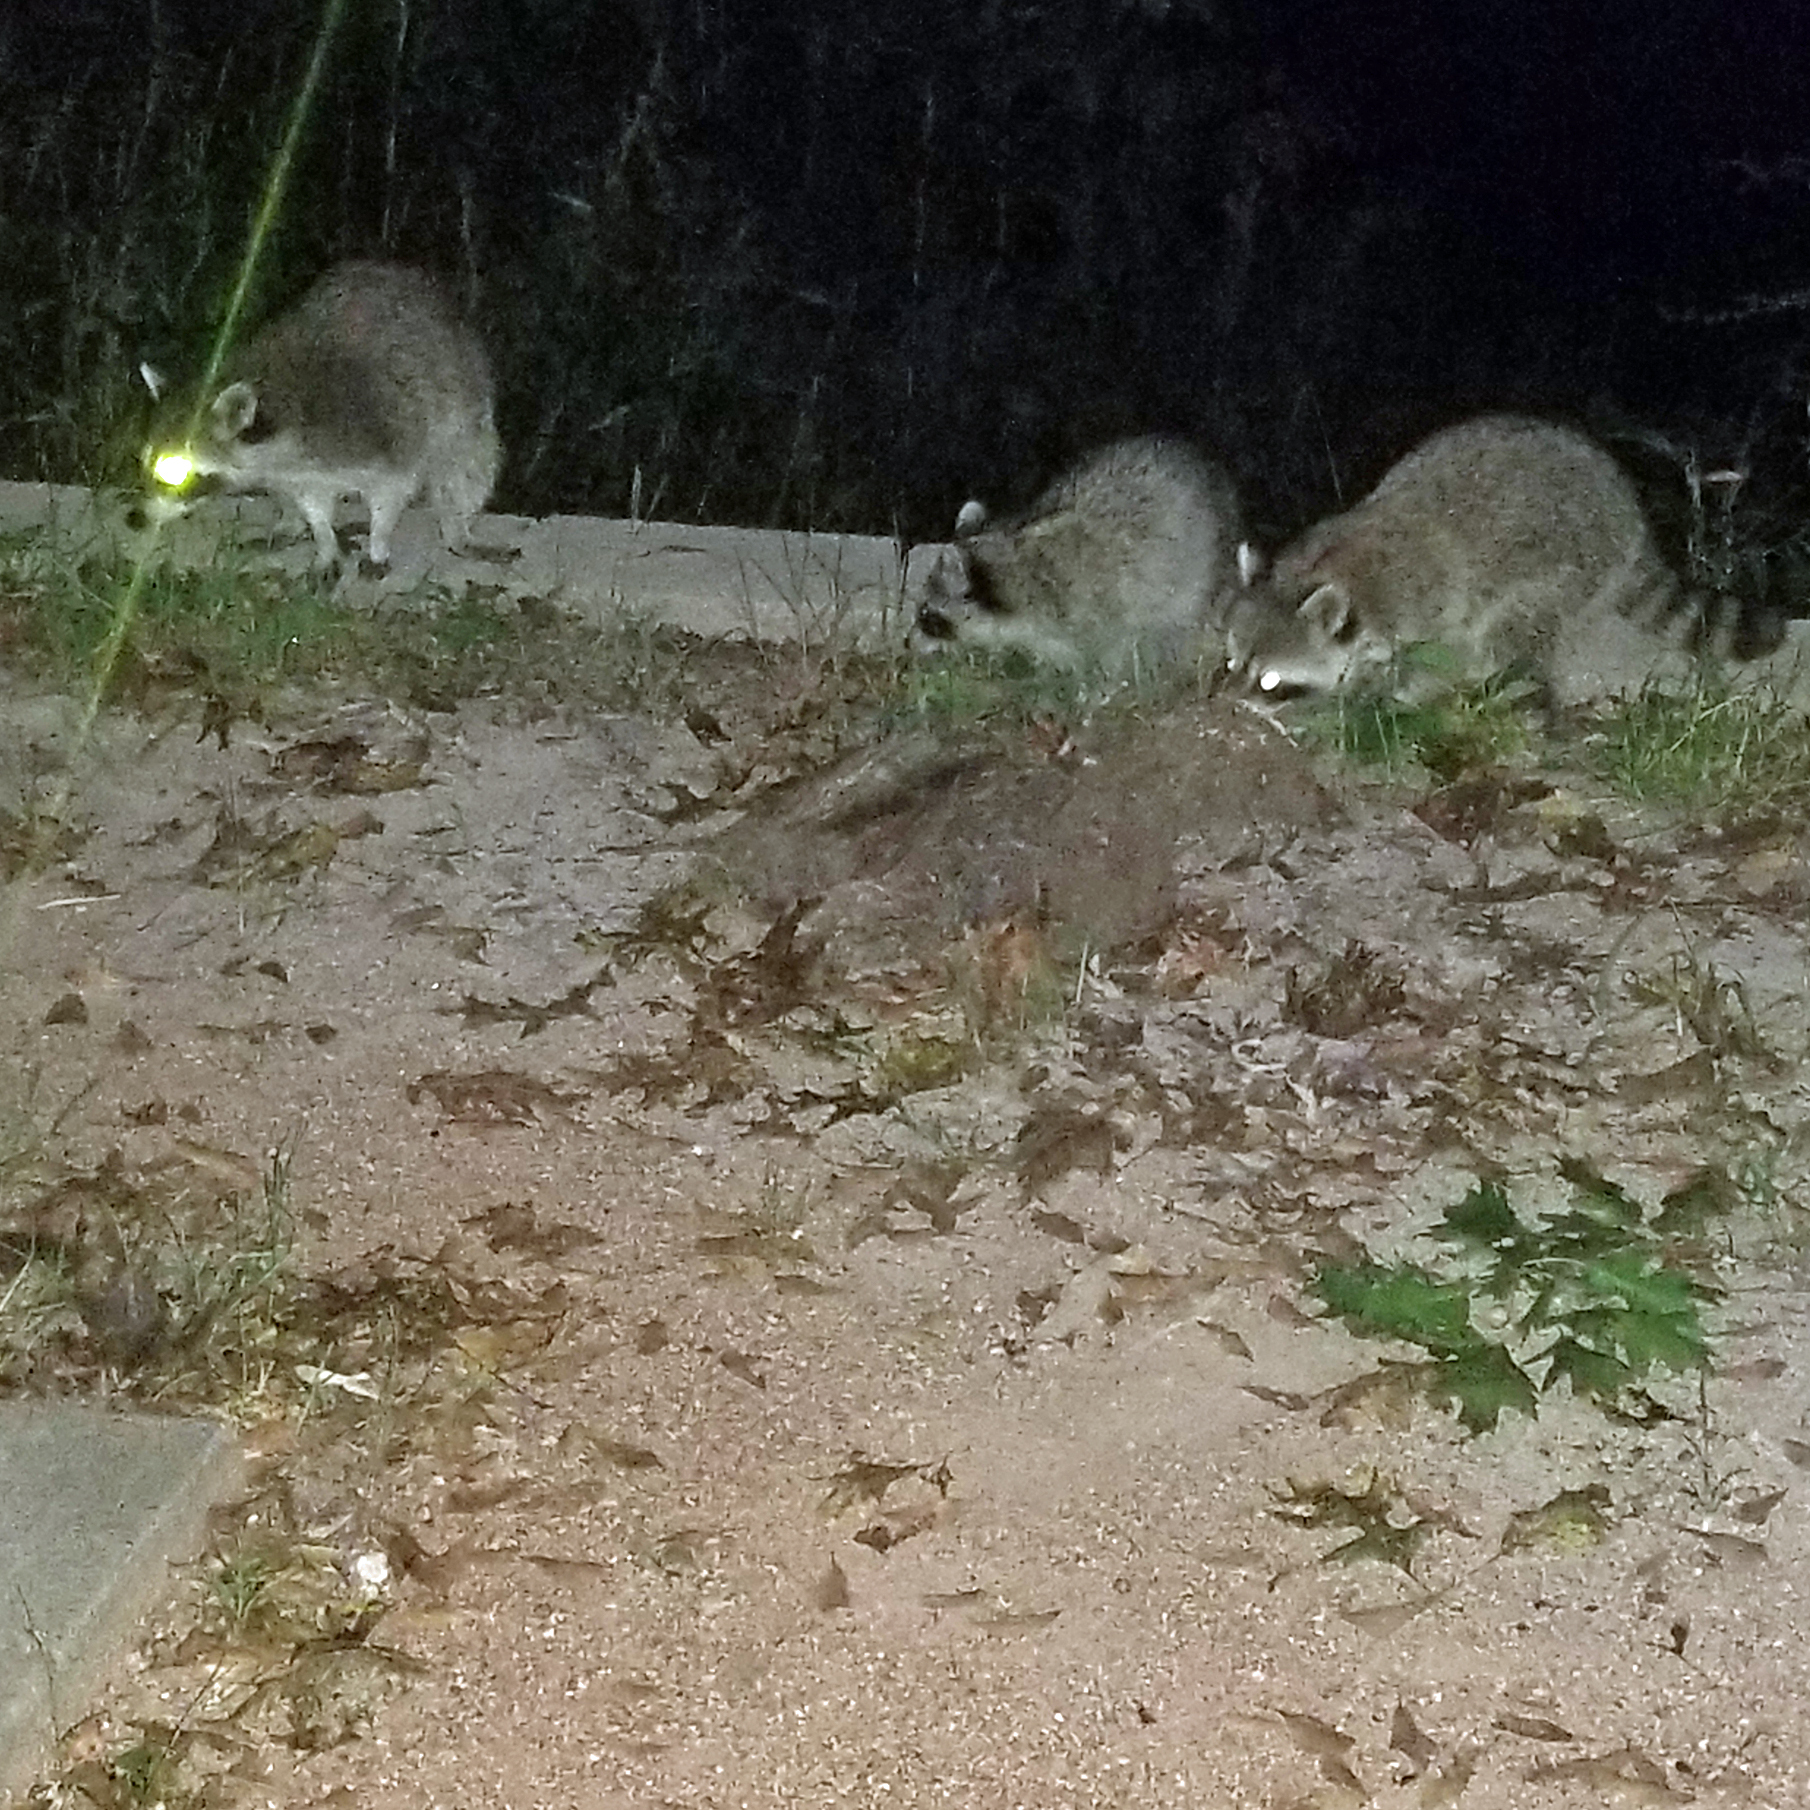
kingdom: Animalia
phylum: Chordata
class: Mammalia
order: Carnivora
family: Procyonidae
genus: Procyon
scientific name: Procyon lotor
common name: Raccoon
